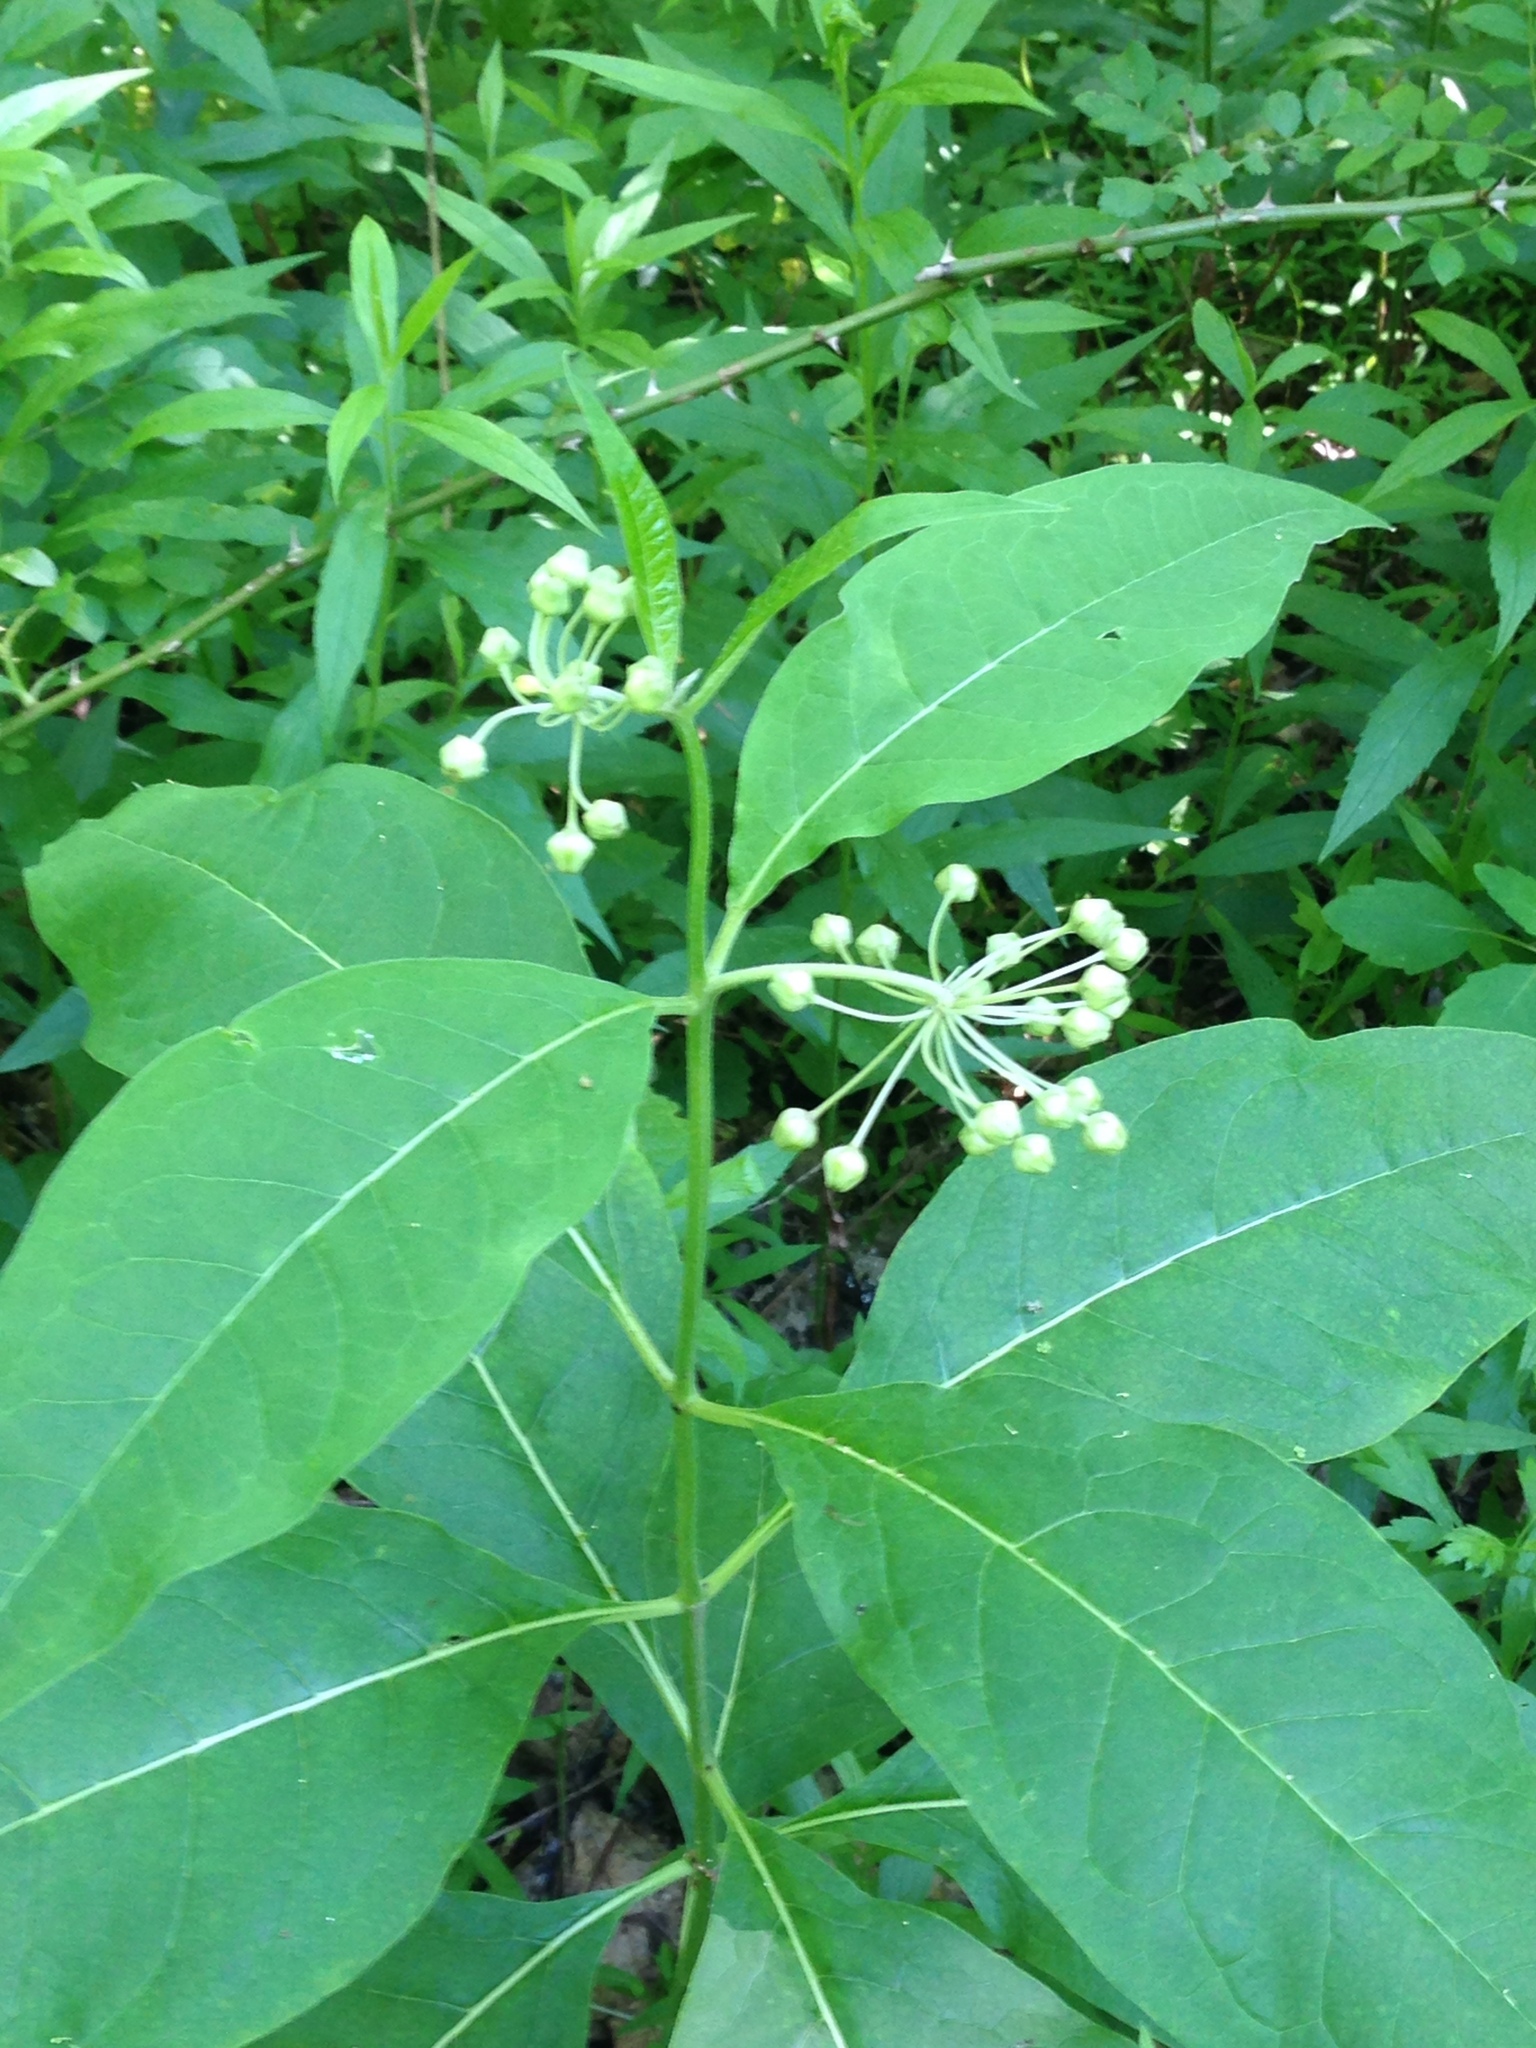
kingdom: Plantae
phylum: Tracheophyta
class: Magnoliopsida
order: Gentianales
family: Apocynaceae
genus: Asclepias
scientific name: Asclepias exaltata
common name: Poke milkweed
